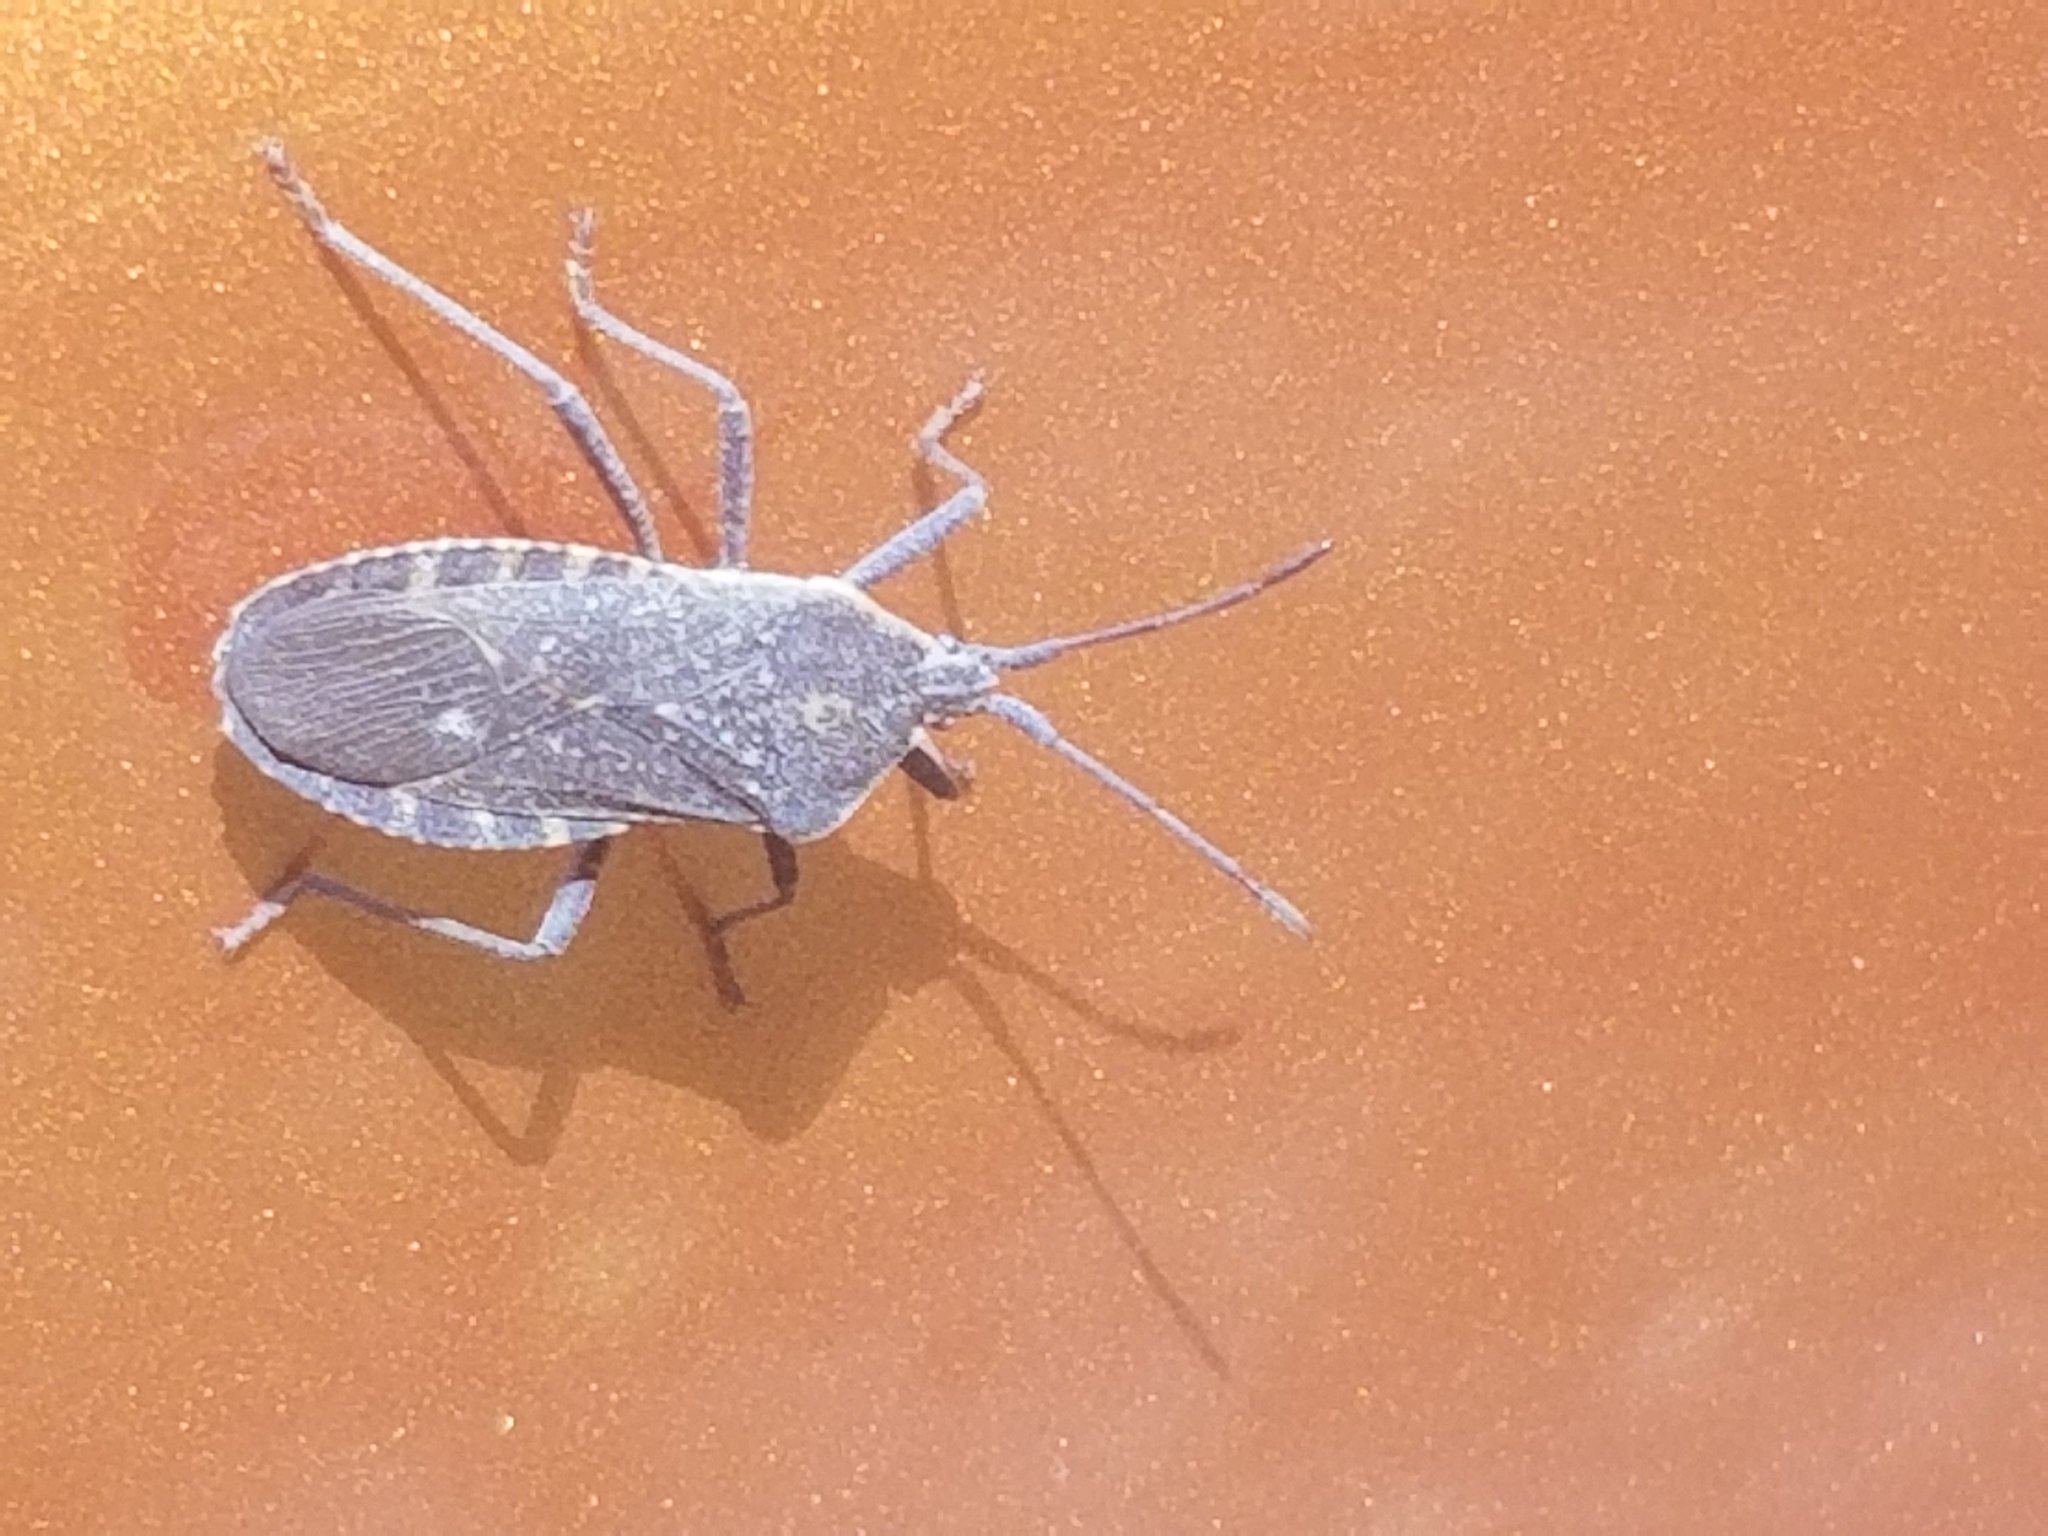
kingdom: Animalia
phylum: Arthropoda
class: Insecta
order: Hemiptera
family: Coreidae
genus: Anasa
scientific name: Anasa tristis
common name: Squash bug
